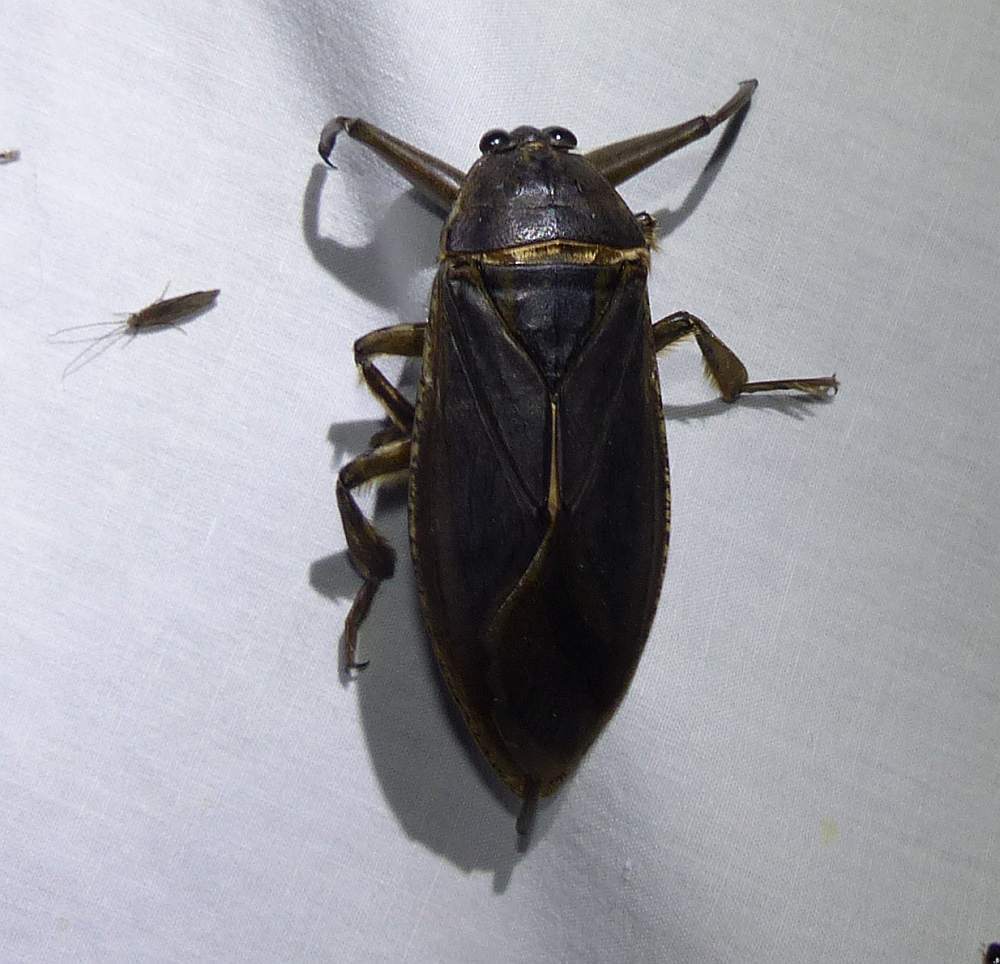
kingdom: Animalia
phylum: Arthropoda
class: Insecta
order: Hemiptera
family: Belostomatidae
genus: Lethocerus
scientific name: Lethocerus americanus
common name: Giant water bug
